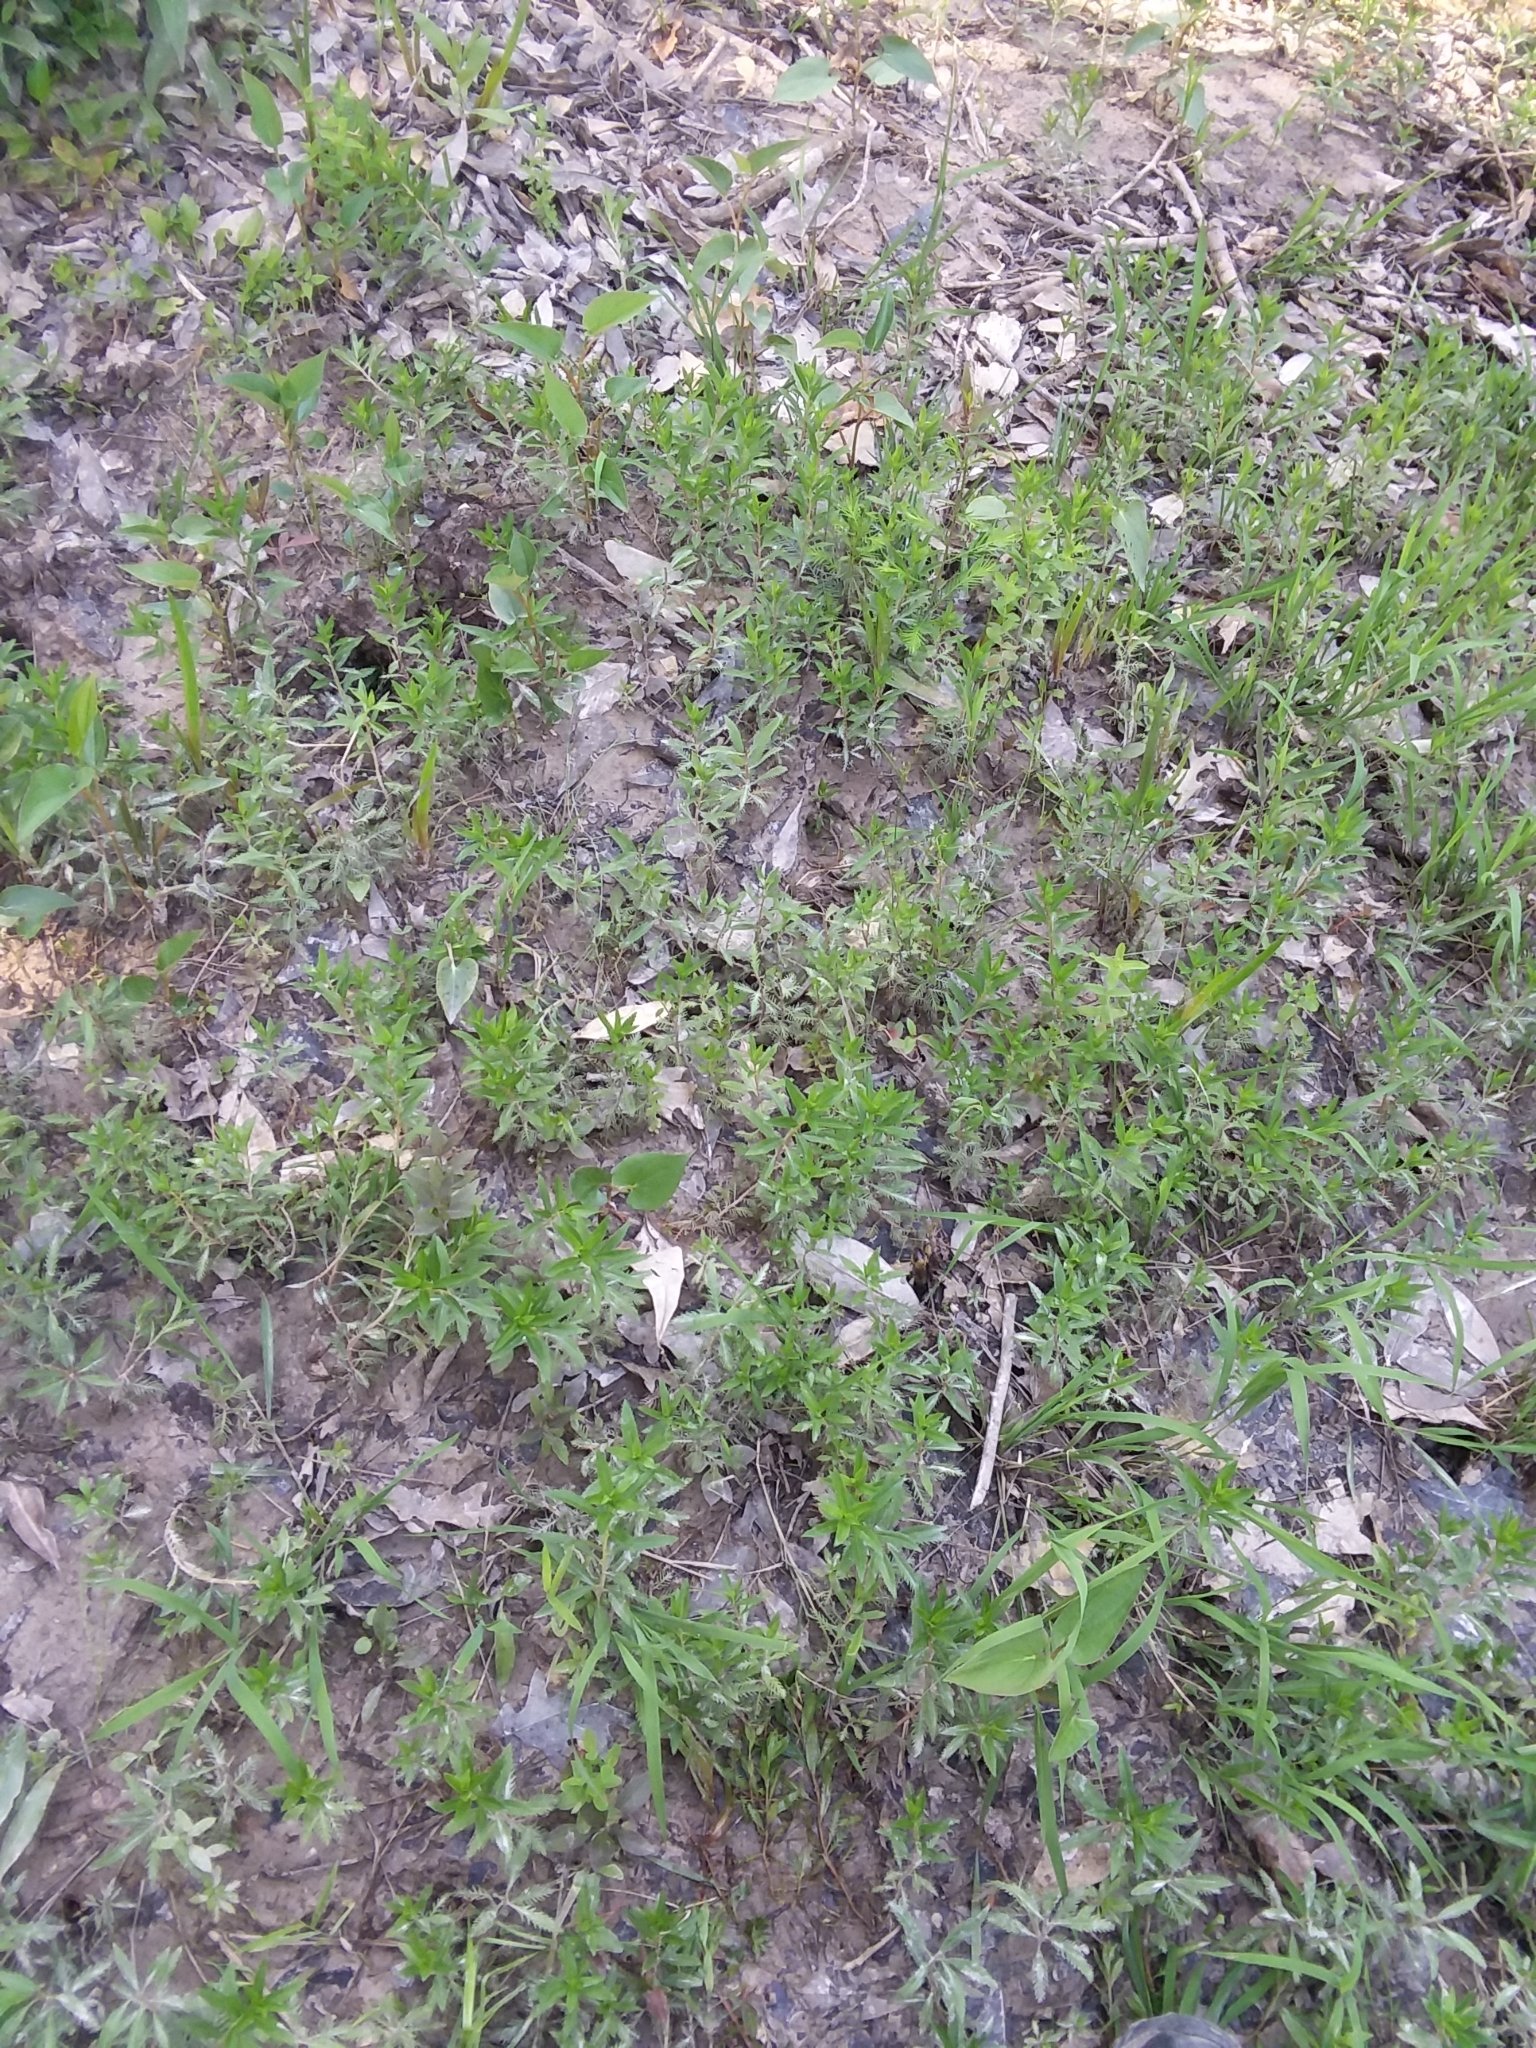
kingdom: Plantae
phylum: Tracheophyta
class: Magnoliopsida
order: Saxifragales
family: Haloragaceae
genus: Proserpinaca
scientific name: Proserpinaca palustris
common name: Marsh mermaidweed
